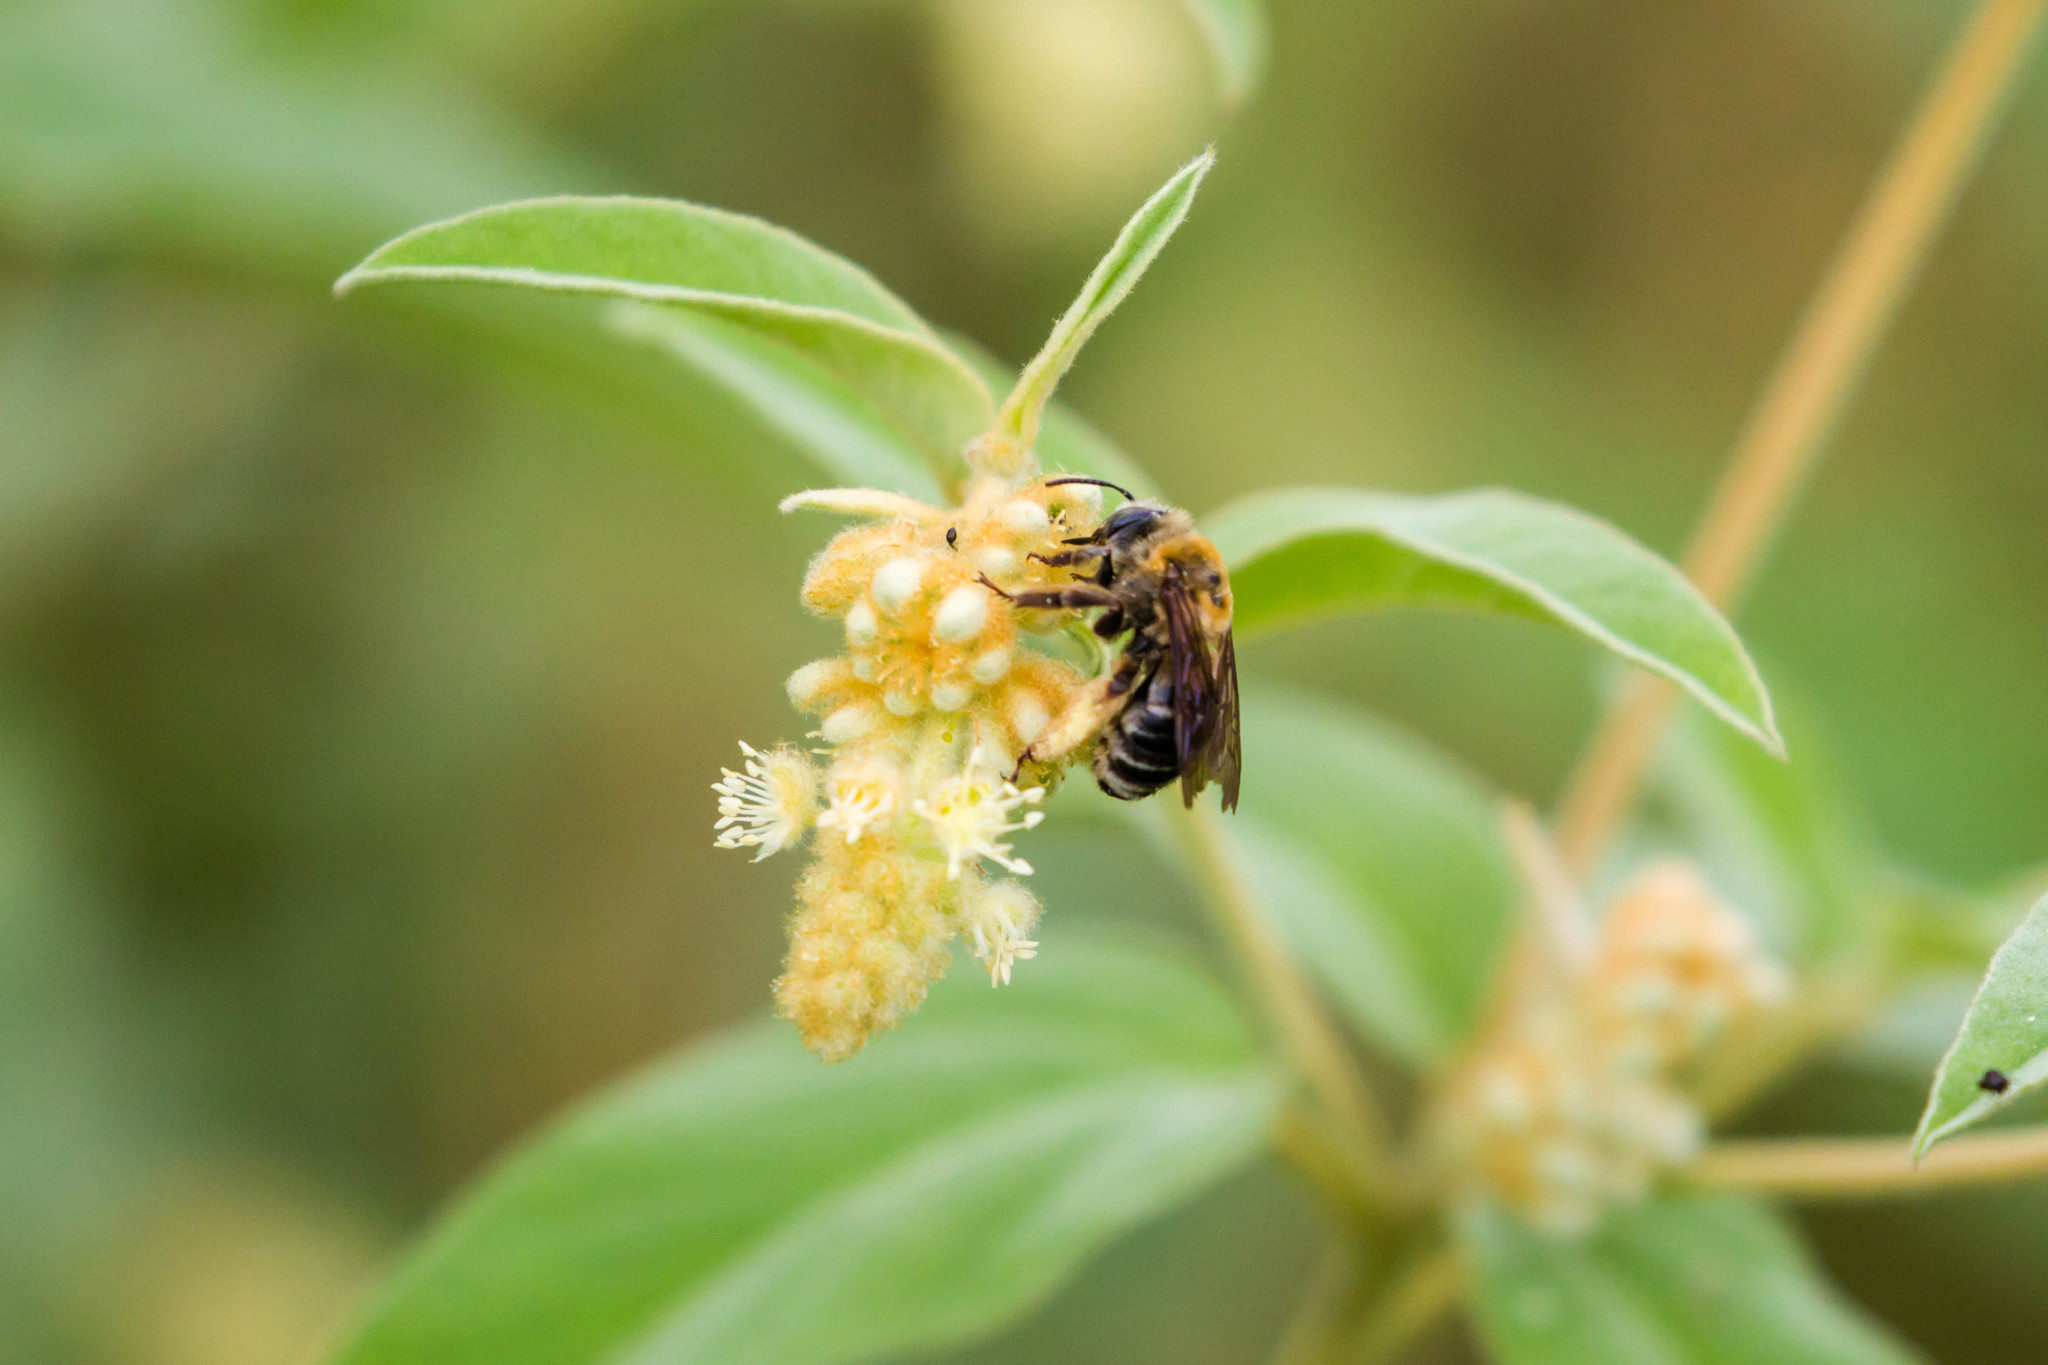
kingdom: Animalia
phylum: Arthropoda
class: Insecta
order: Hymenoptera
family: Apidae
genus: Melissodes
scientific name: Melissodes comptoides
